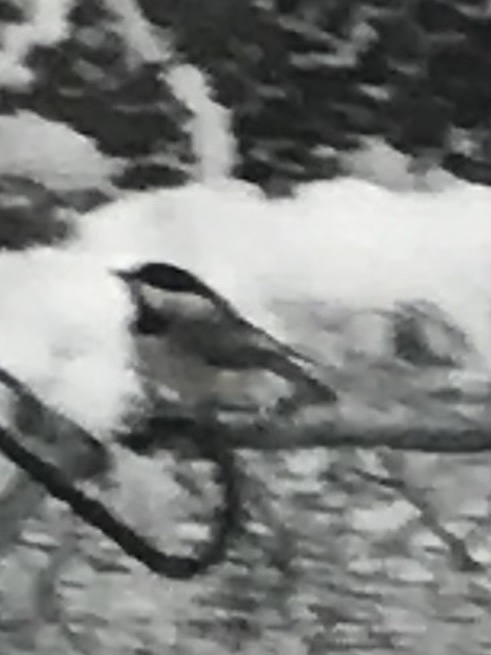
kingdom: Animalia
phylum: Chordata
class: Aves
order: Passeriformes
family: Paridae
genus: Poecile
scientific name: Poecile carolinensis
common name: Carolina chickadee
